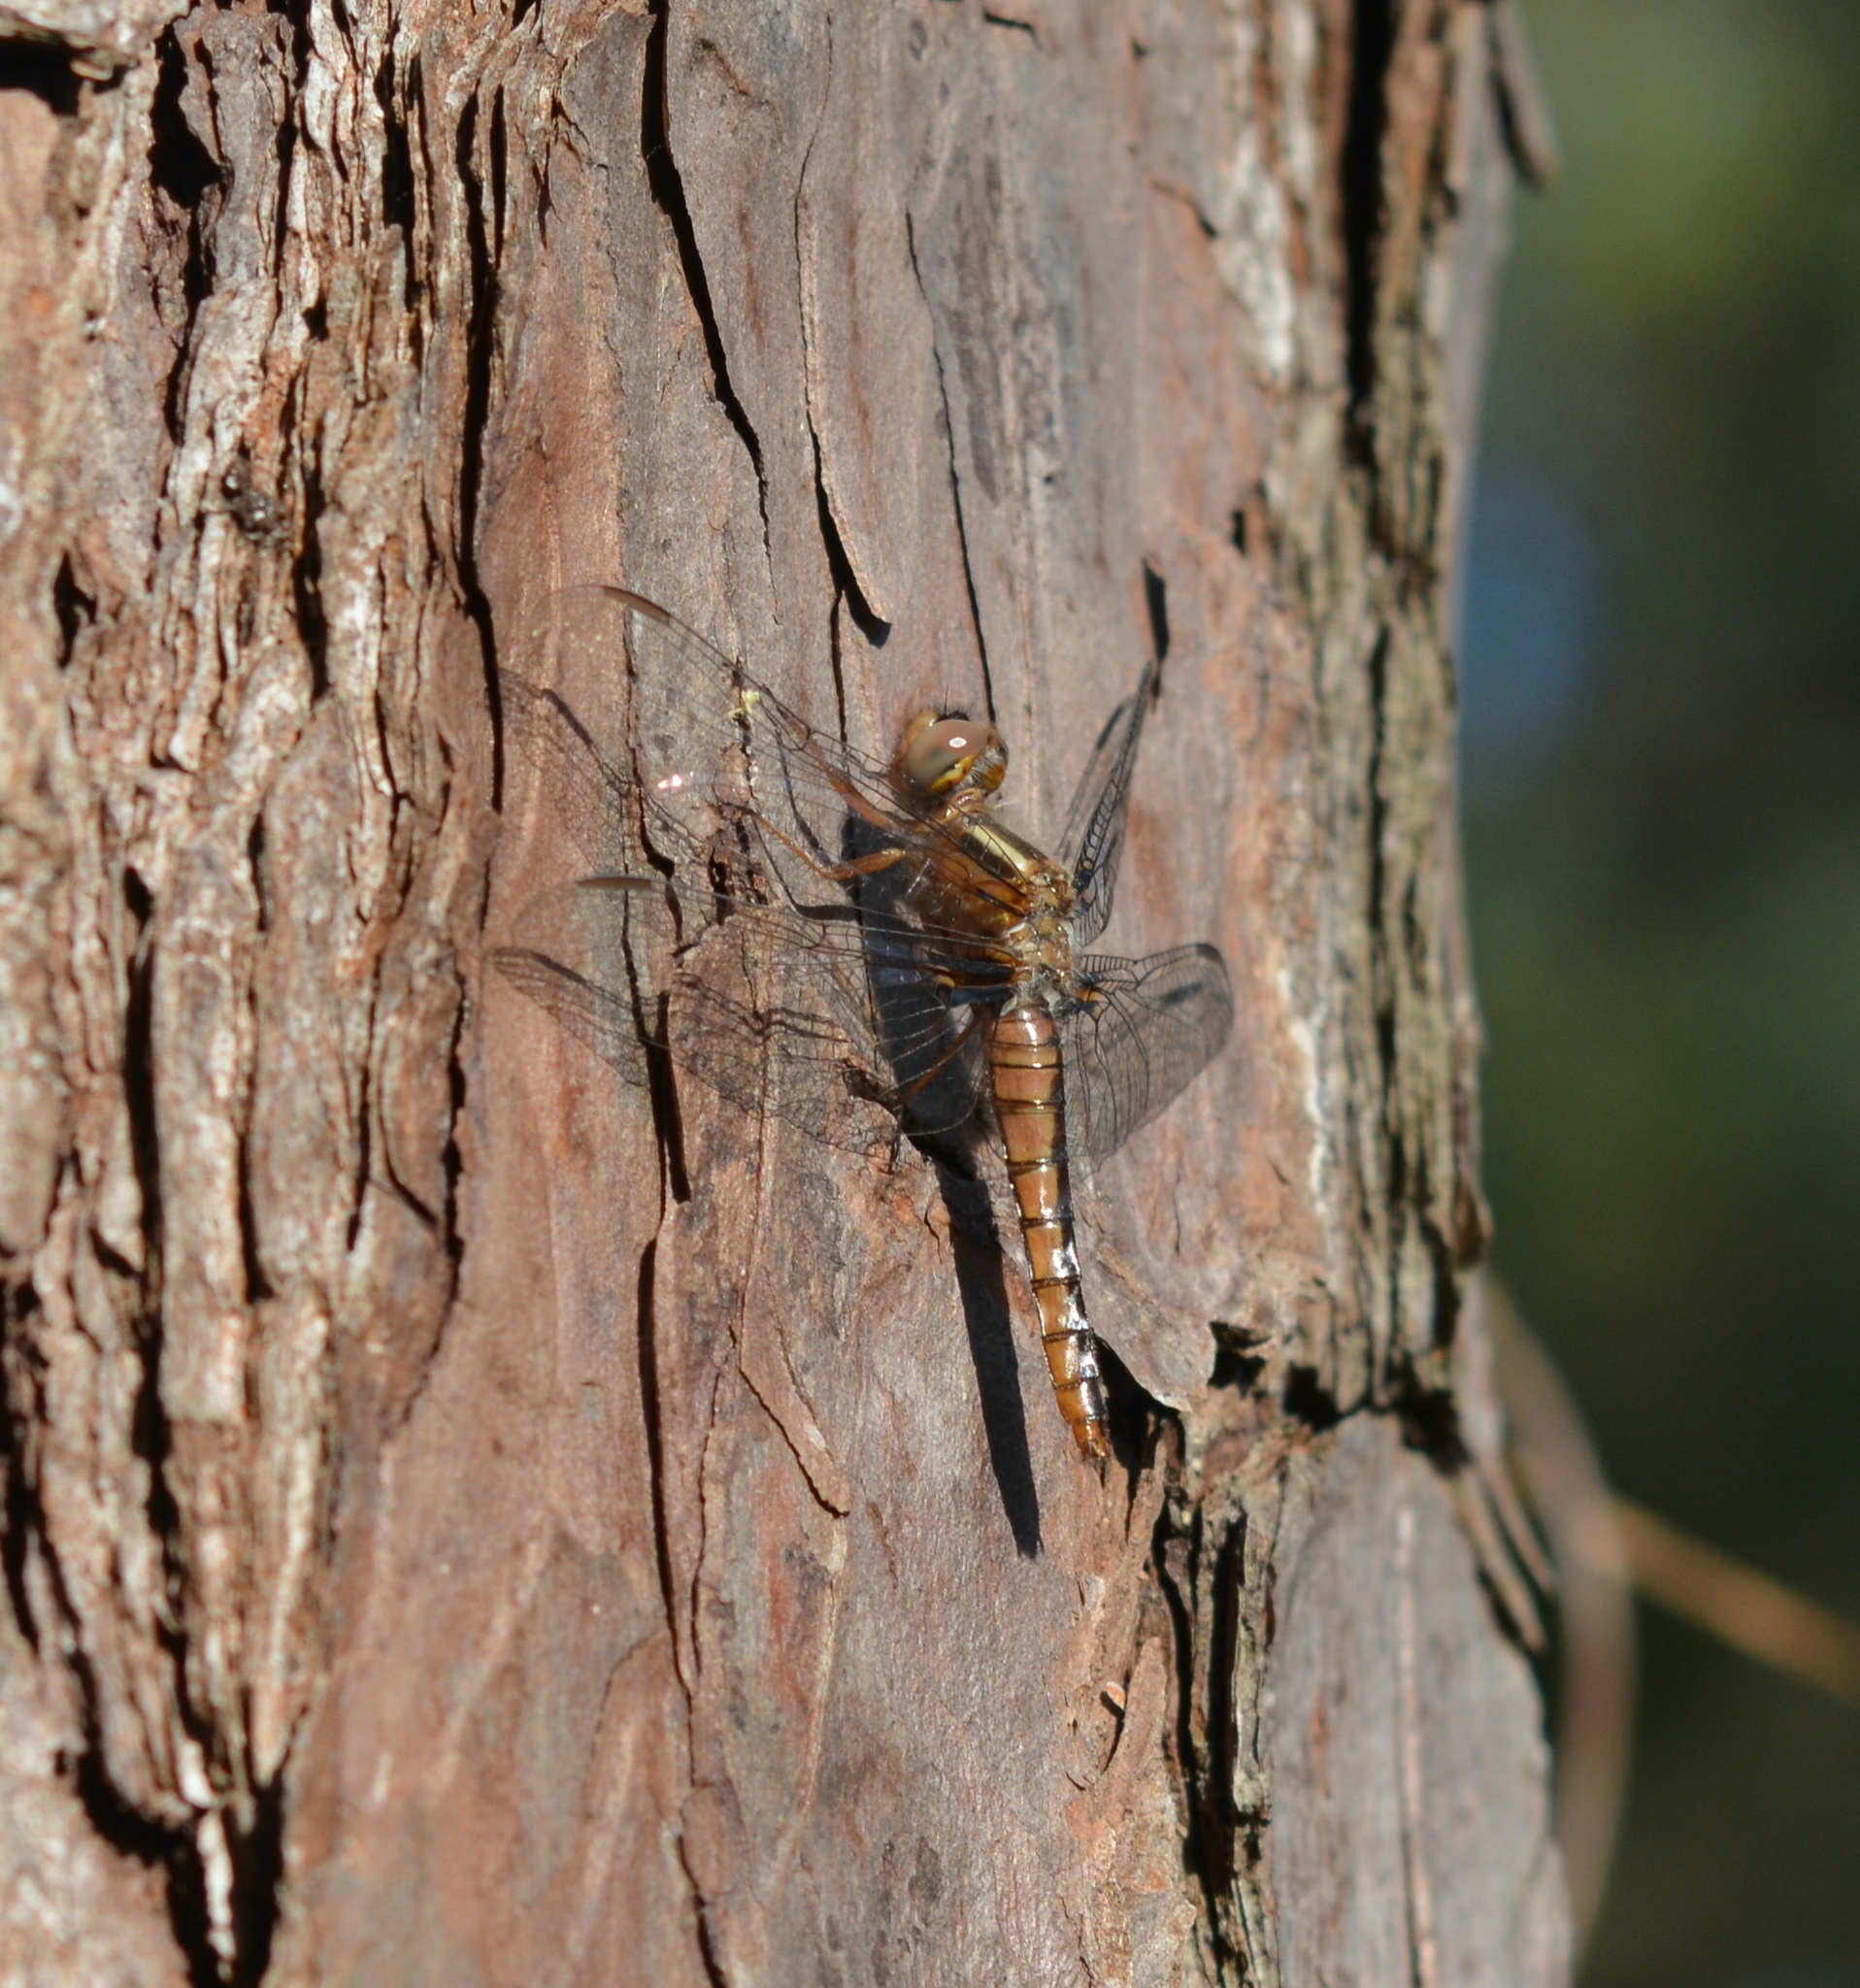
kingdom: Animalia
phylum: Arthropoda
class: Insecta
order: Odonata
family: Libellulidae
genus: Ladona
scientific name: Ladona deplanata
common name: Blue corporal
